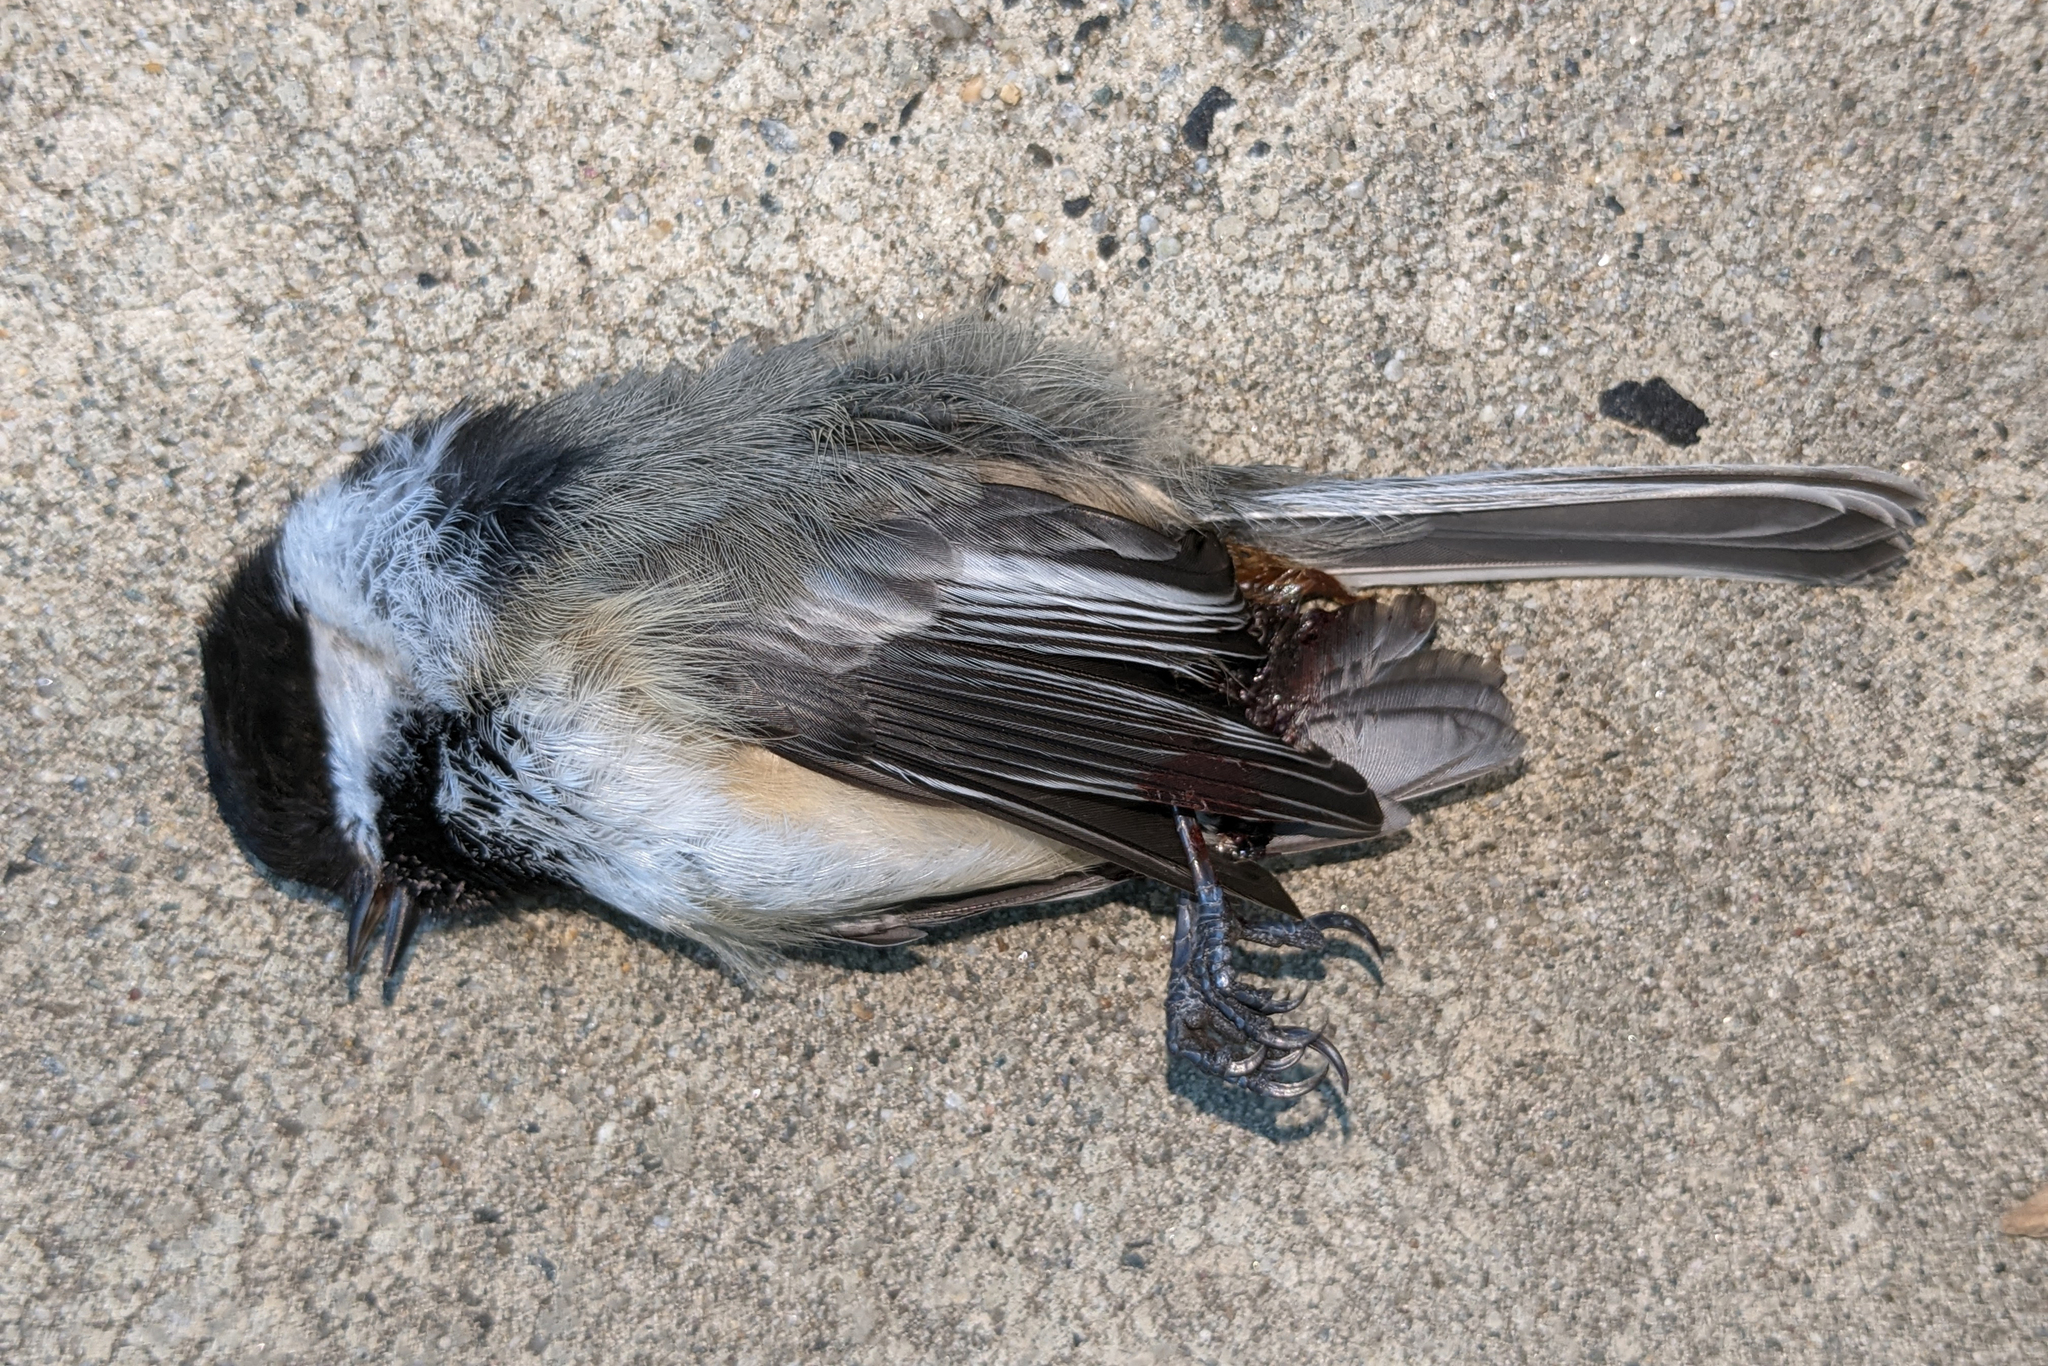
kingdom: Animalia
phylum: Chordata
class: Aves
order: Passeriformes
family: Paridae
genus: Poecile
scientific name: Poecile atricapillus
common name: Black-capped chickadee
